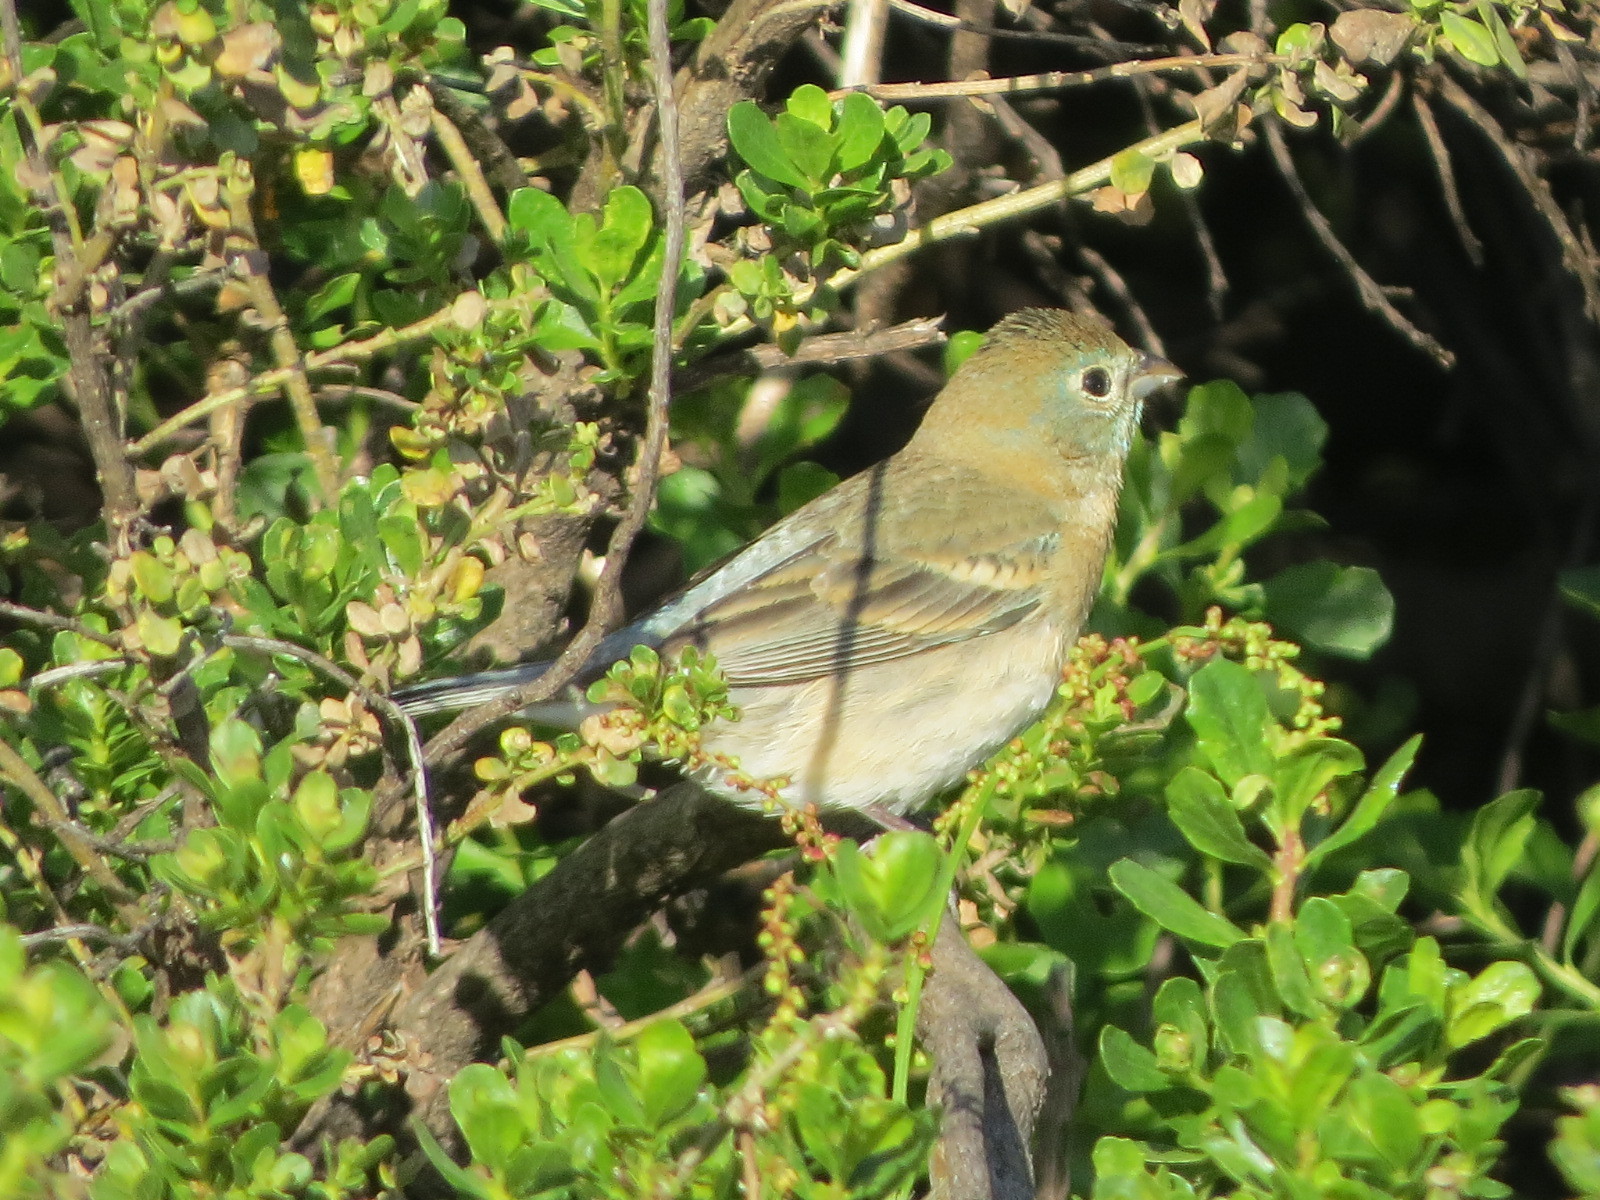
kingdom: Animalia
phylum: Chordata
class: Aves
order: Passeriformes
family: Cardinalidae
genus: Passerina
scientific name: Passerina amoena
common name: Lazuli bunting
